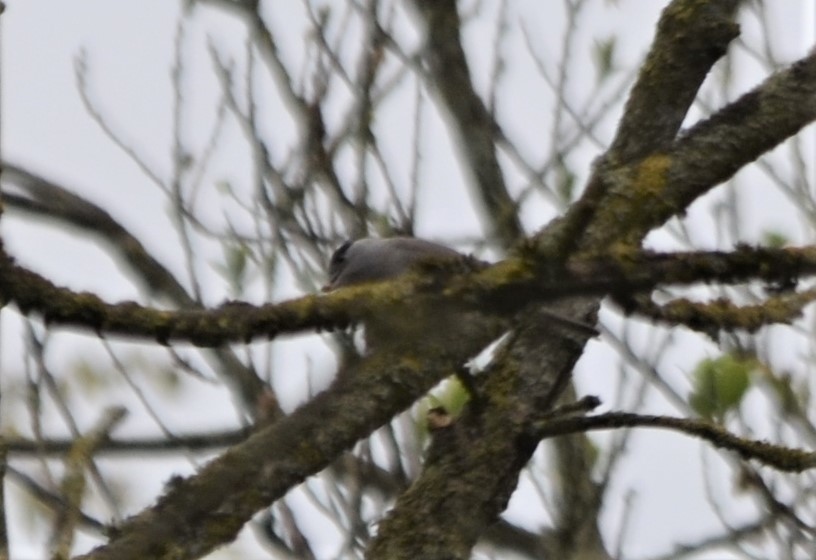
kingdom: Animalia
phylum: Chordata
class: Aves
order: Passeriformes
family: Sylviidae
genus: Sylvia
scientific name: Sylvia atricapilla
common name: Eurasian blackcap
